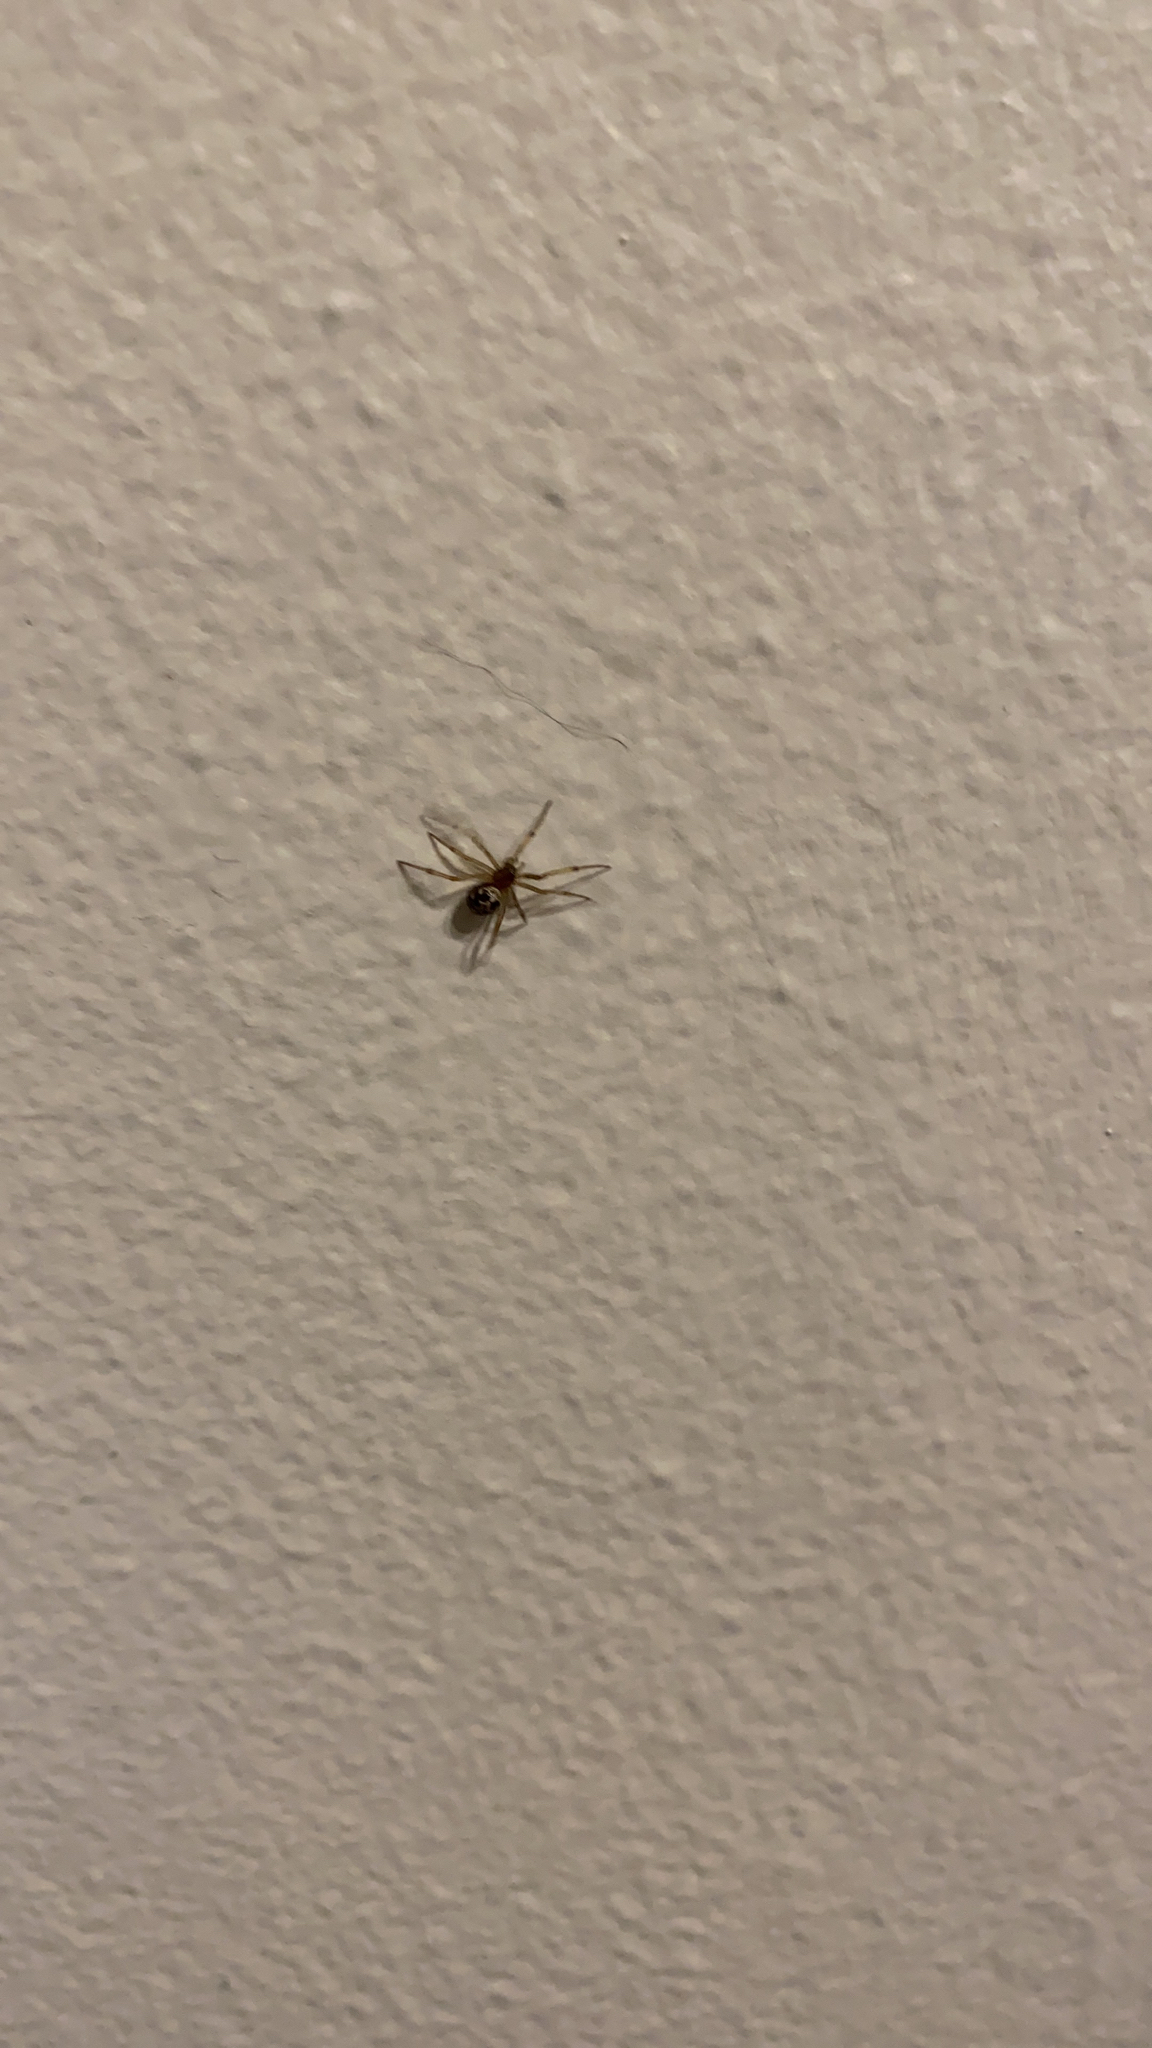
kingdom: Animalia
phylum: Arthropoda
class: Arachnida
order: Araneae
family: Theridiidae
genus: Steatoda
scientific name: Steatoda triangulosa
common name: Triangulate bud spider
